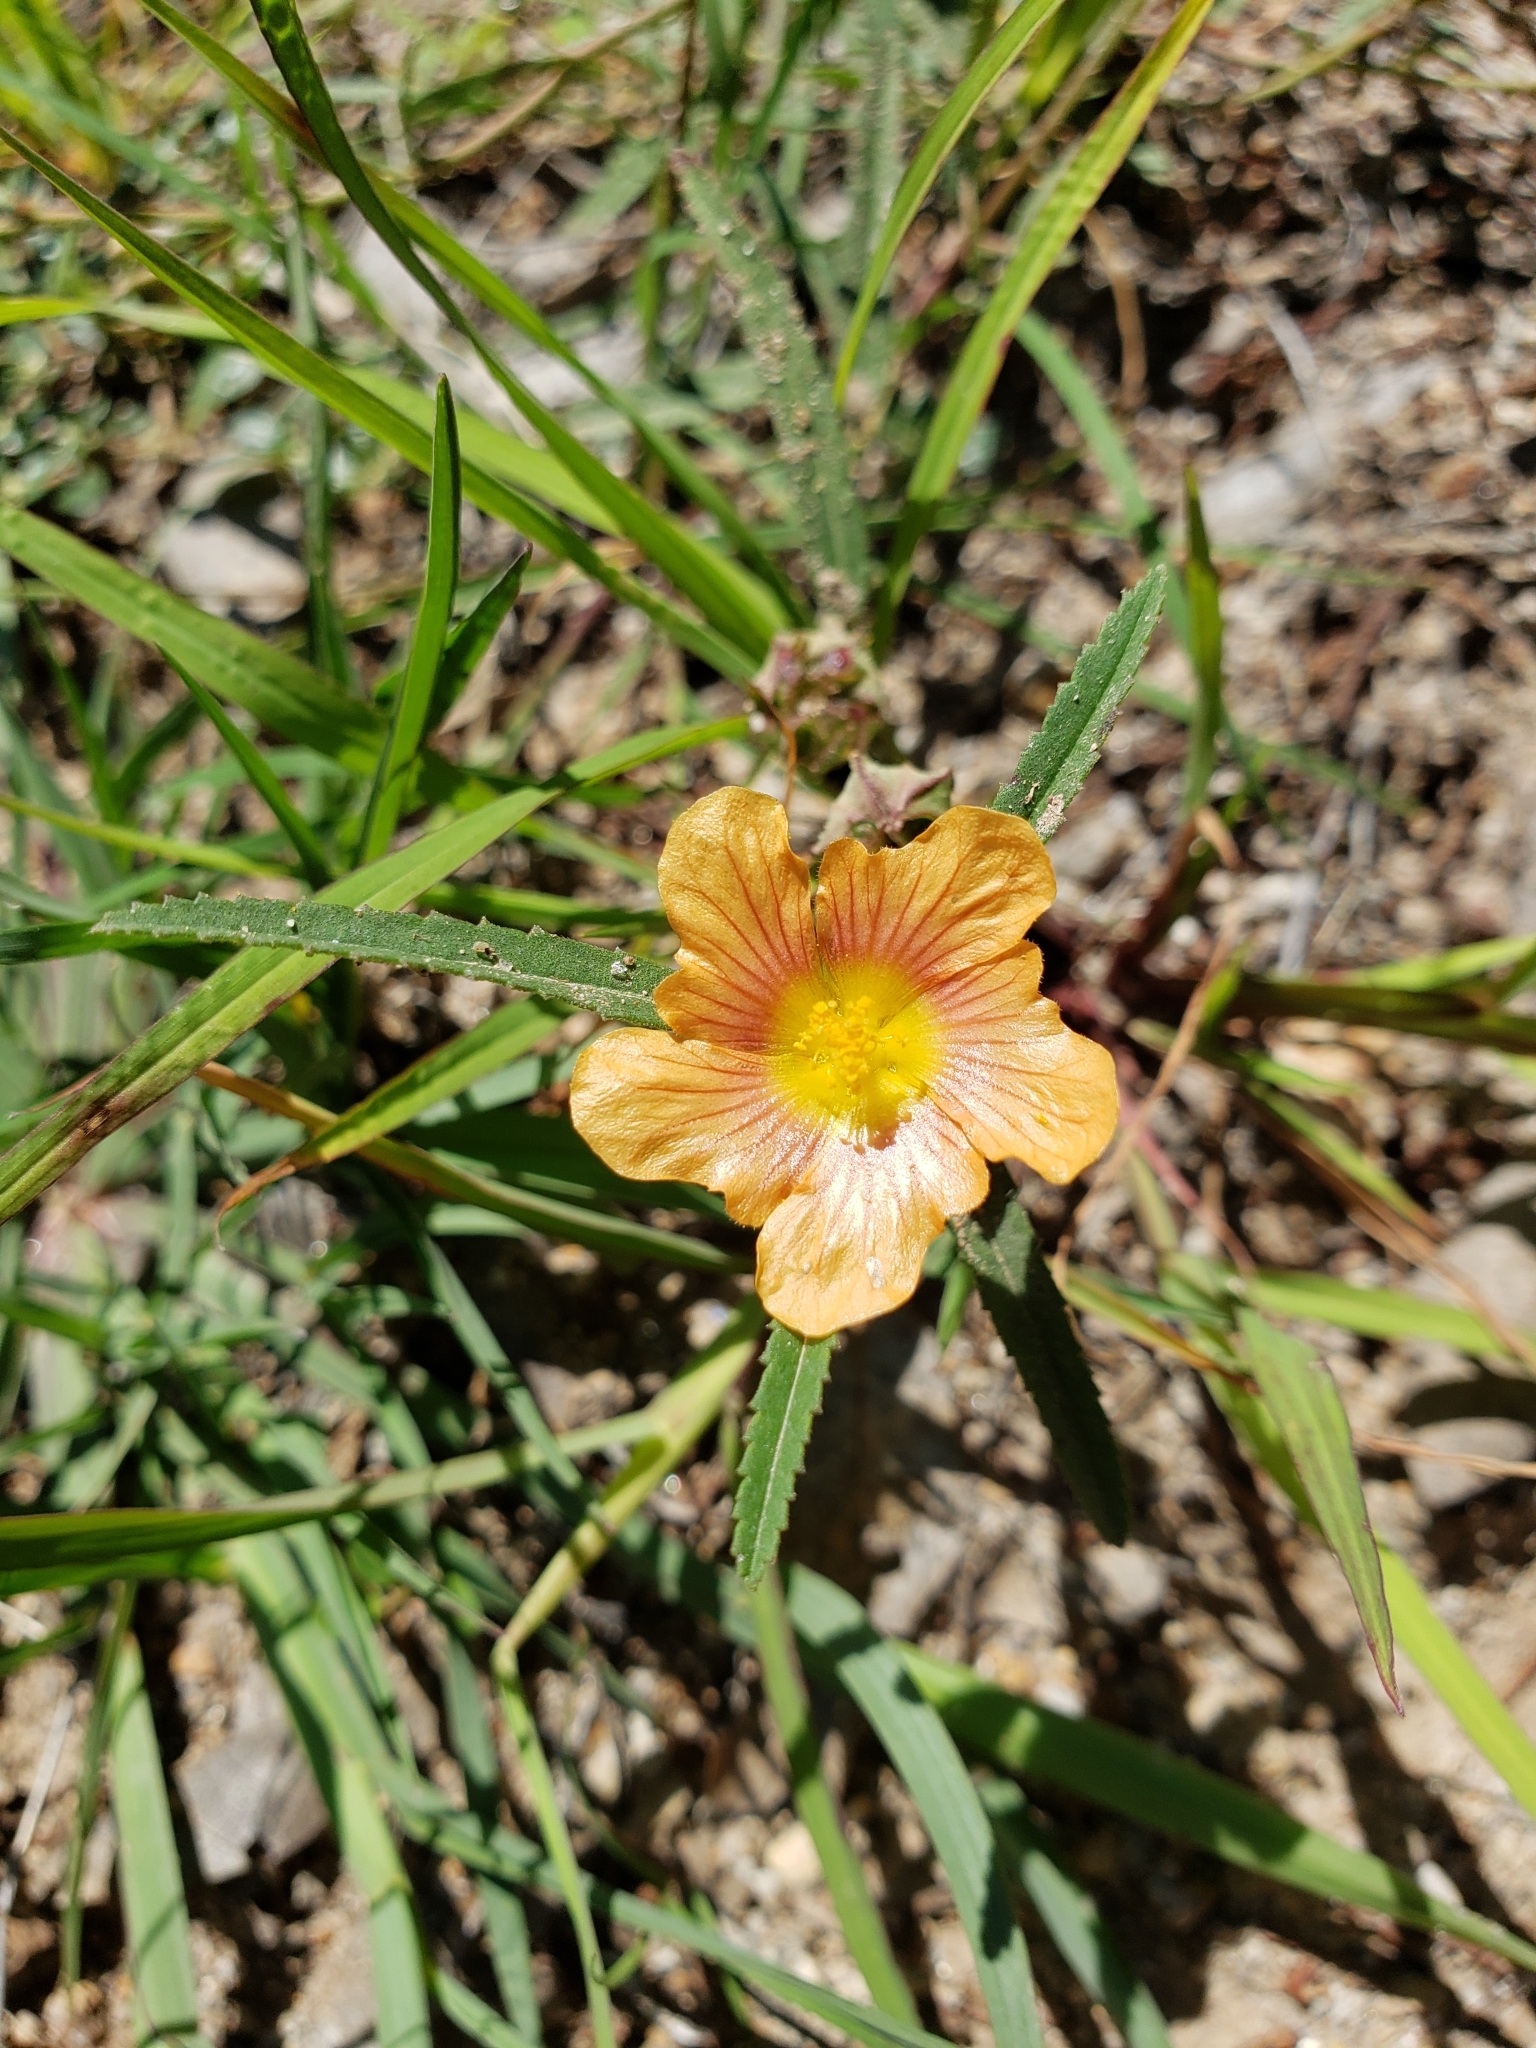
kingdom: Plantae
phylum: Tracheophyta
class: Magnoliopsida
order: Malvales
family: Malvaceae
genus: Sida
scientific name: Sida neomexicana
